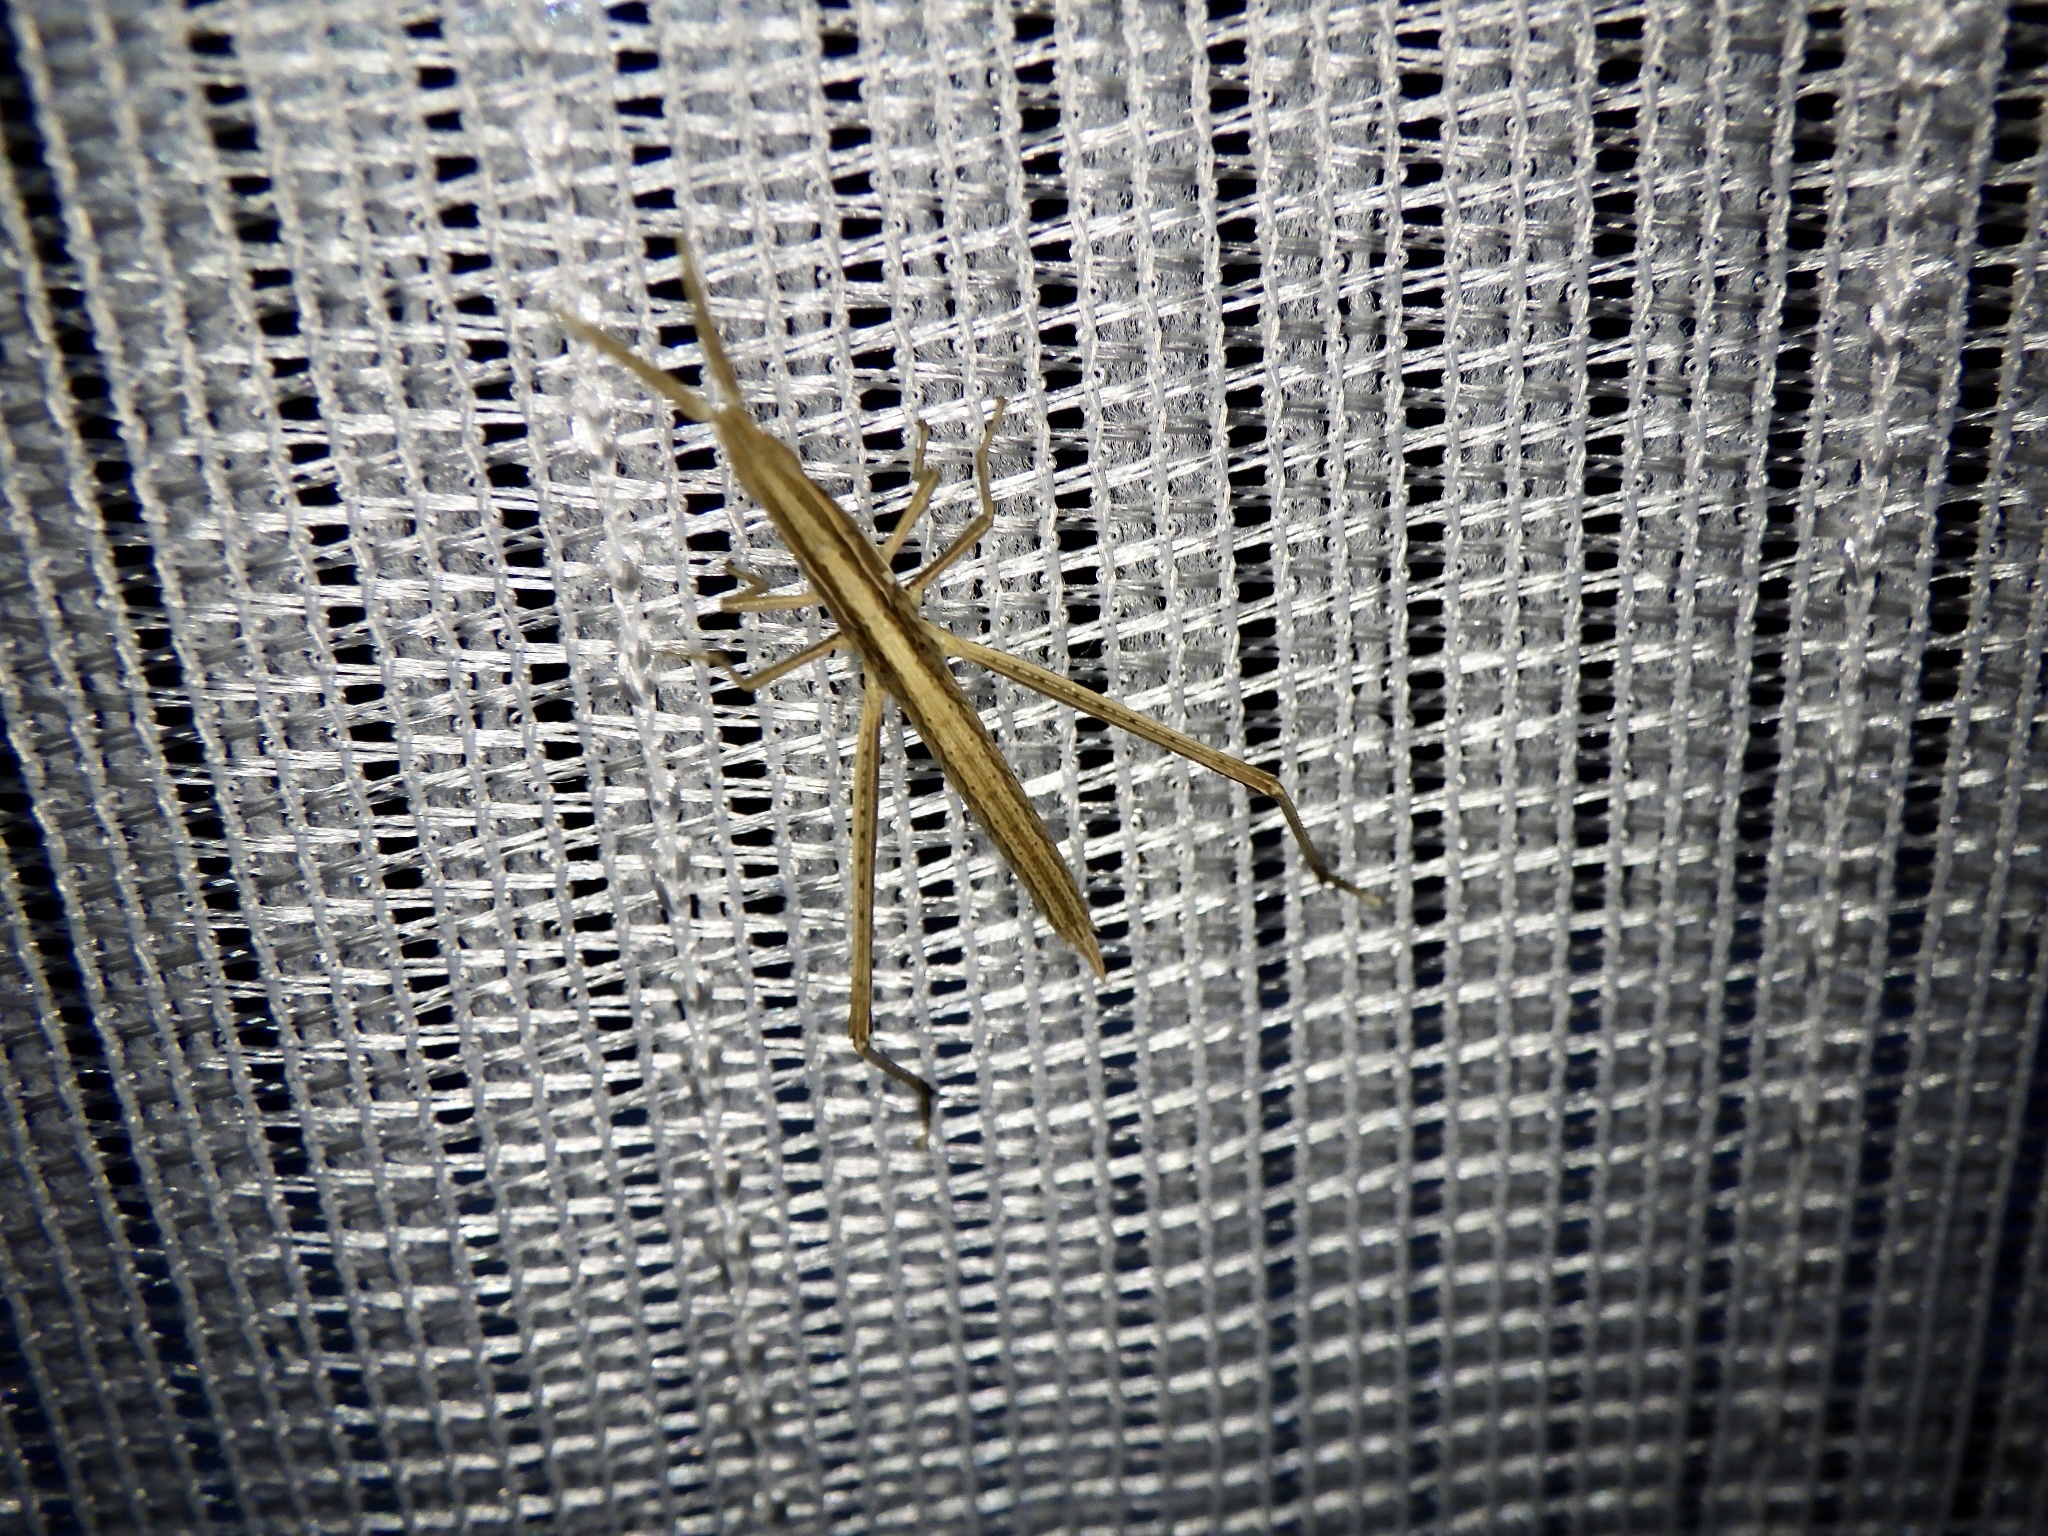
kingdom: Animalia
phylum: Arthropoda
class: Insecta
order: Orthoptera
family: Acrididae
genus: Acrida
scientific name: Acrida cinerea
